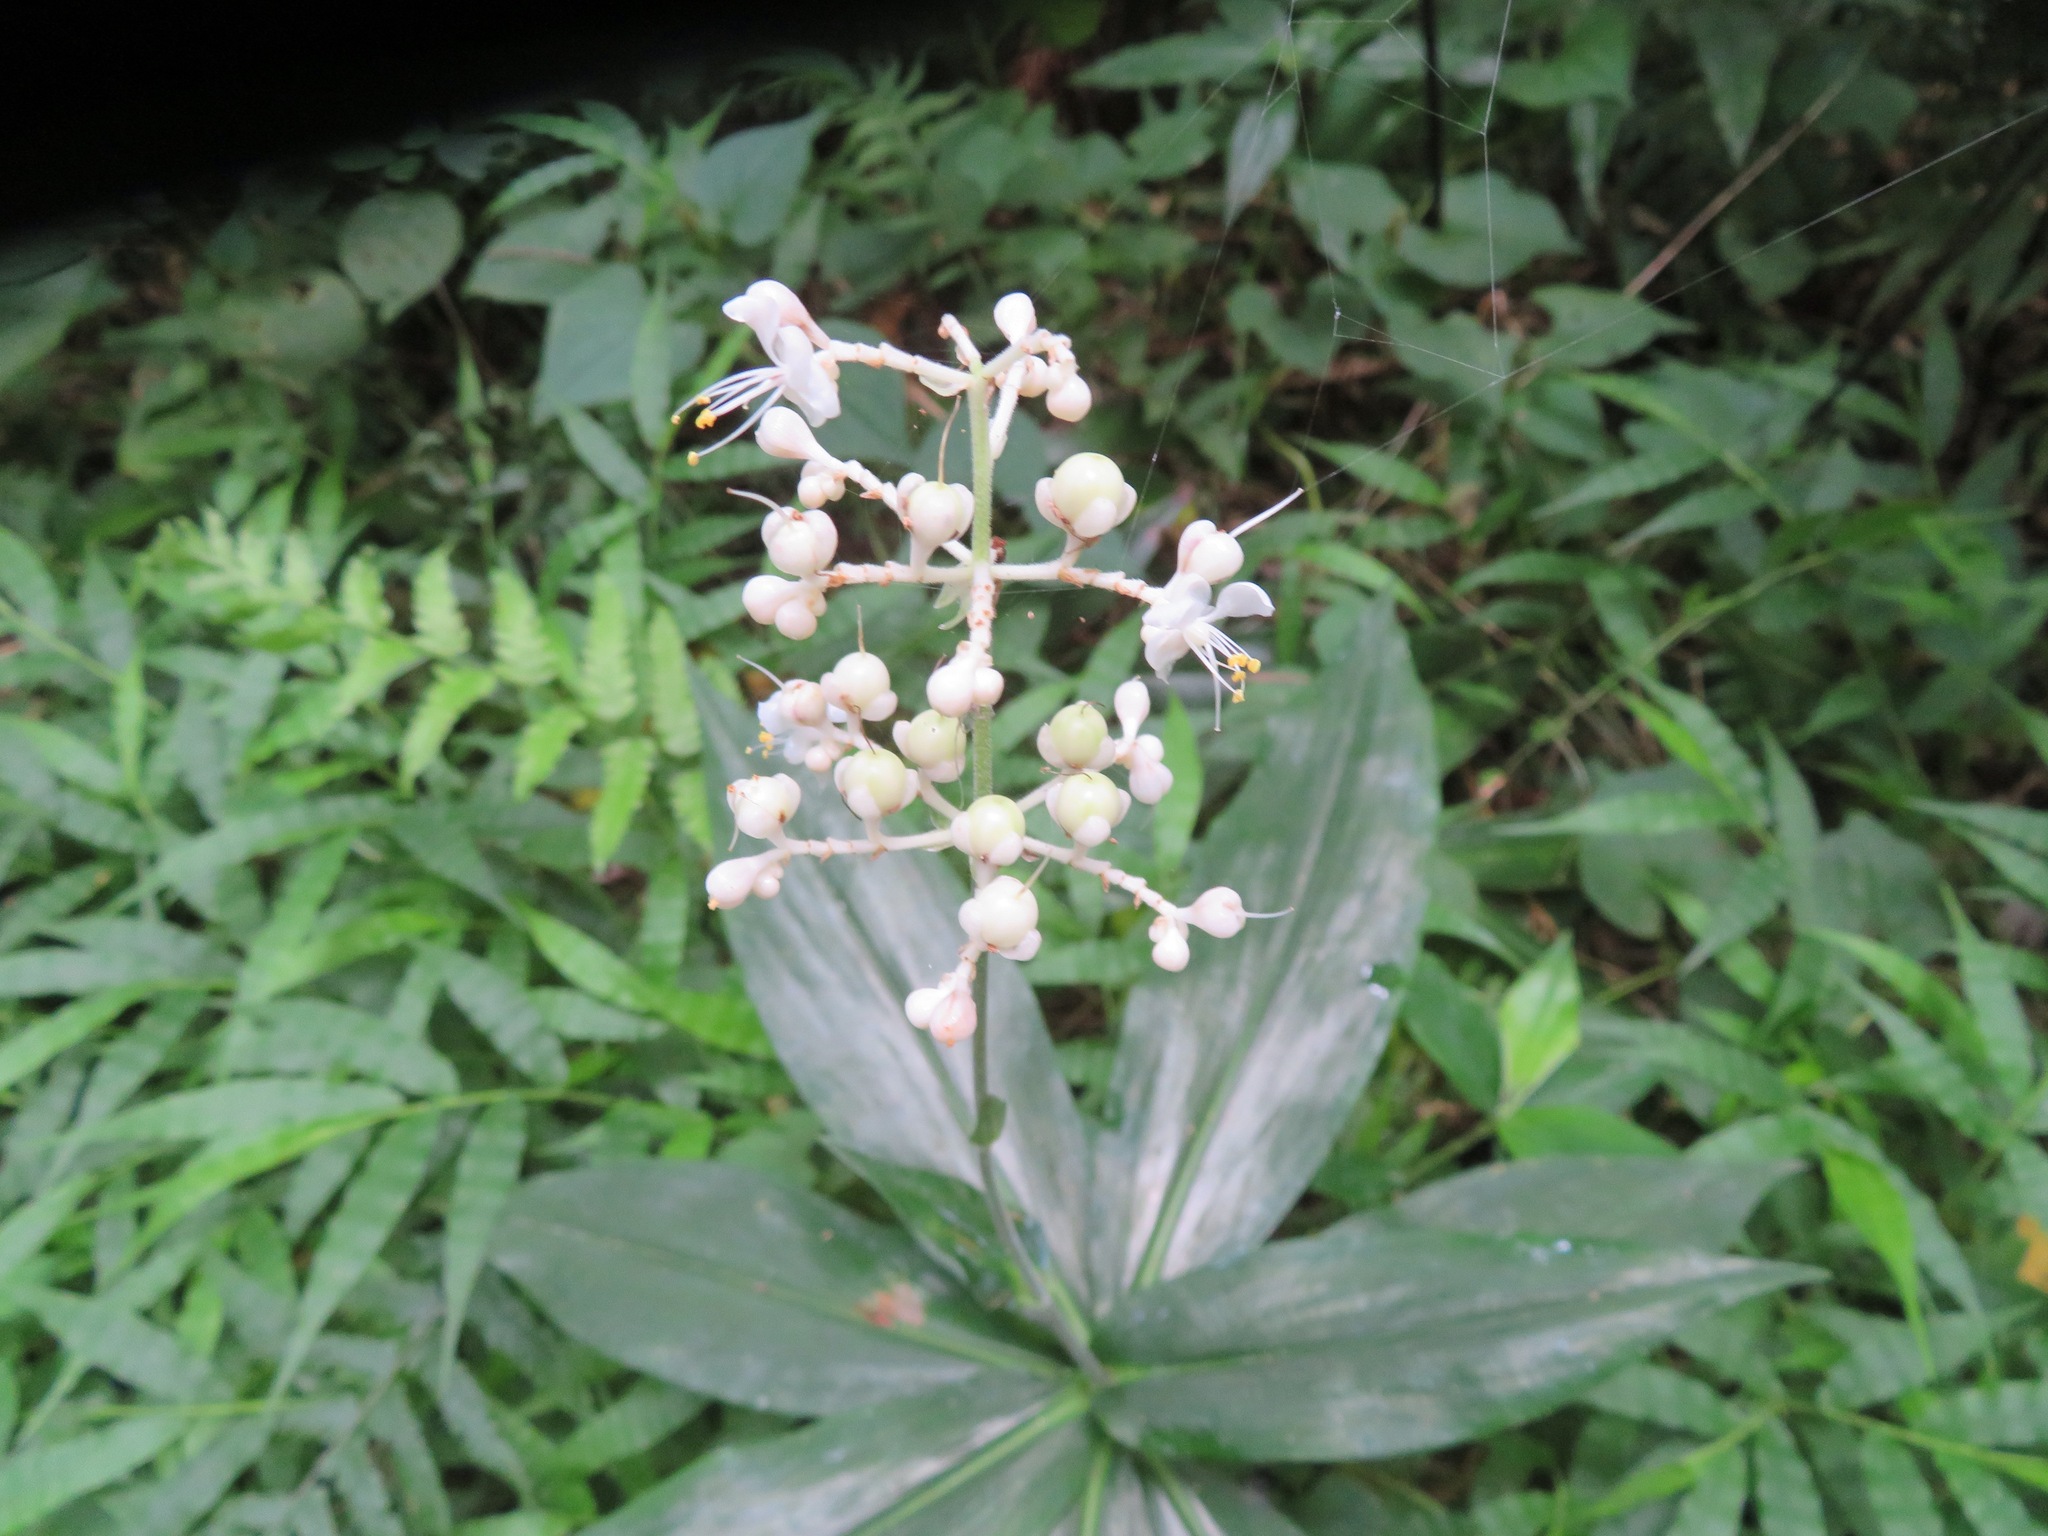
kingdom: Plantae
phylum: Tracheophyta
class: Liliopsida
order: Commelinales
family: Commelinaceae
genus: Pollia
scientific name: Pollia japonica
